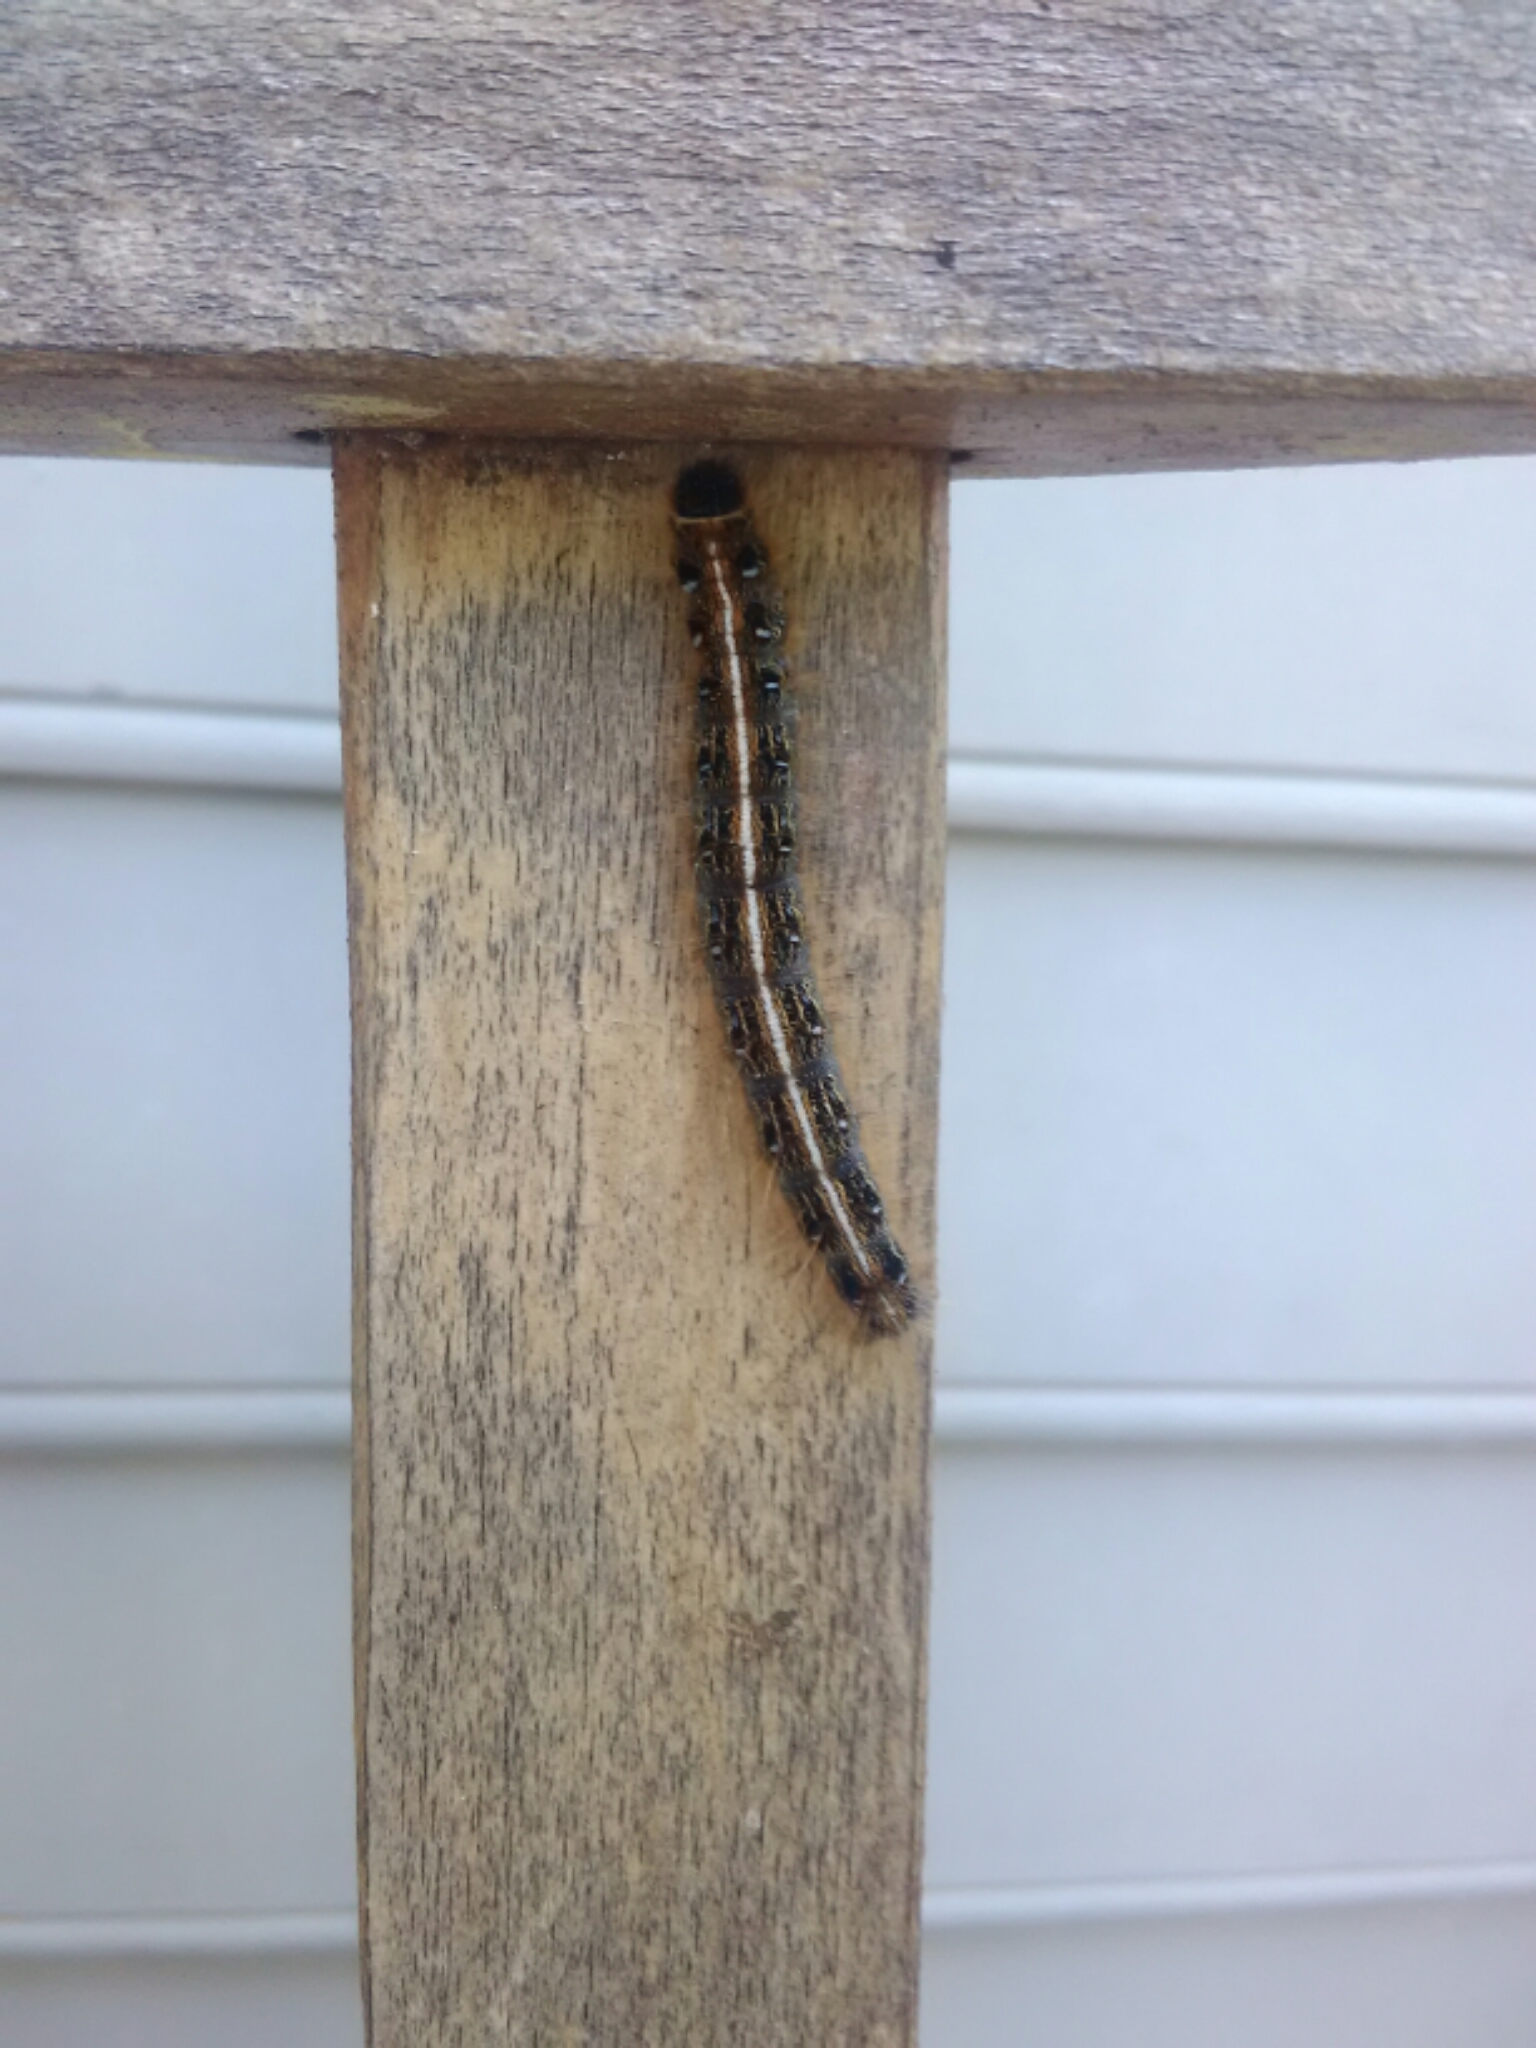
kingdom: Animalia
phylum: Arthropoda
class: Insecta
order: Lepidoptera
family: Lasiocampidae
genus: Malacosoma
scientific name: Malacosoma americana
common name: Eastern tent caterpillar moth
